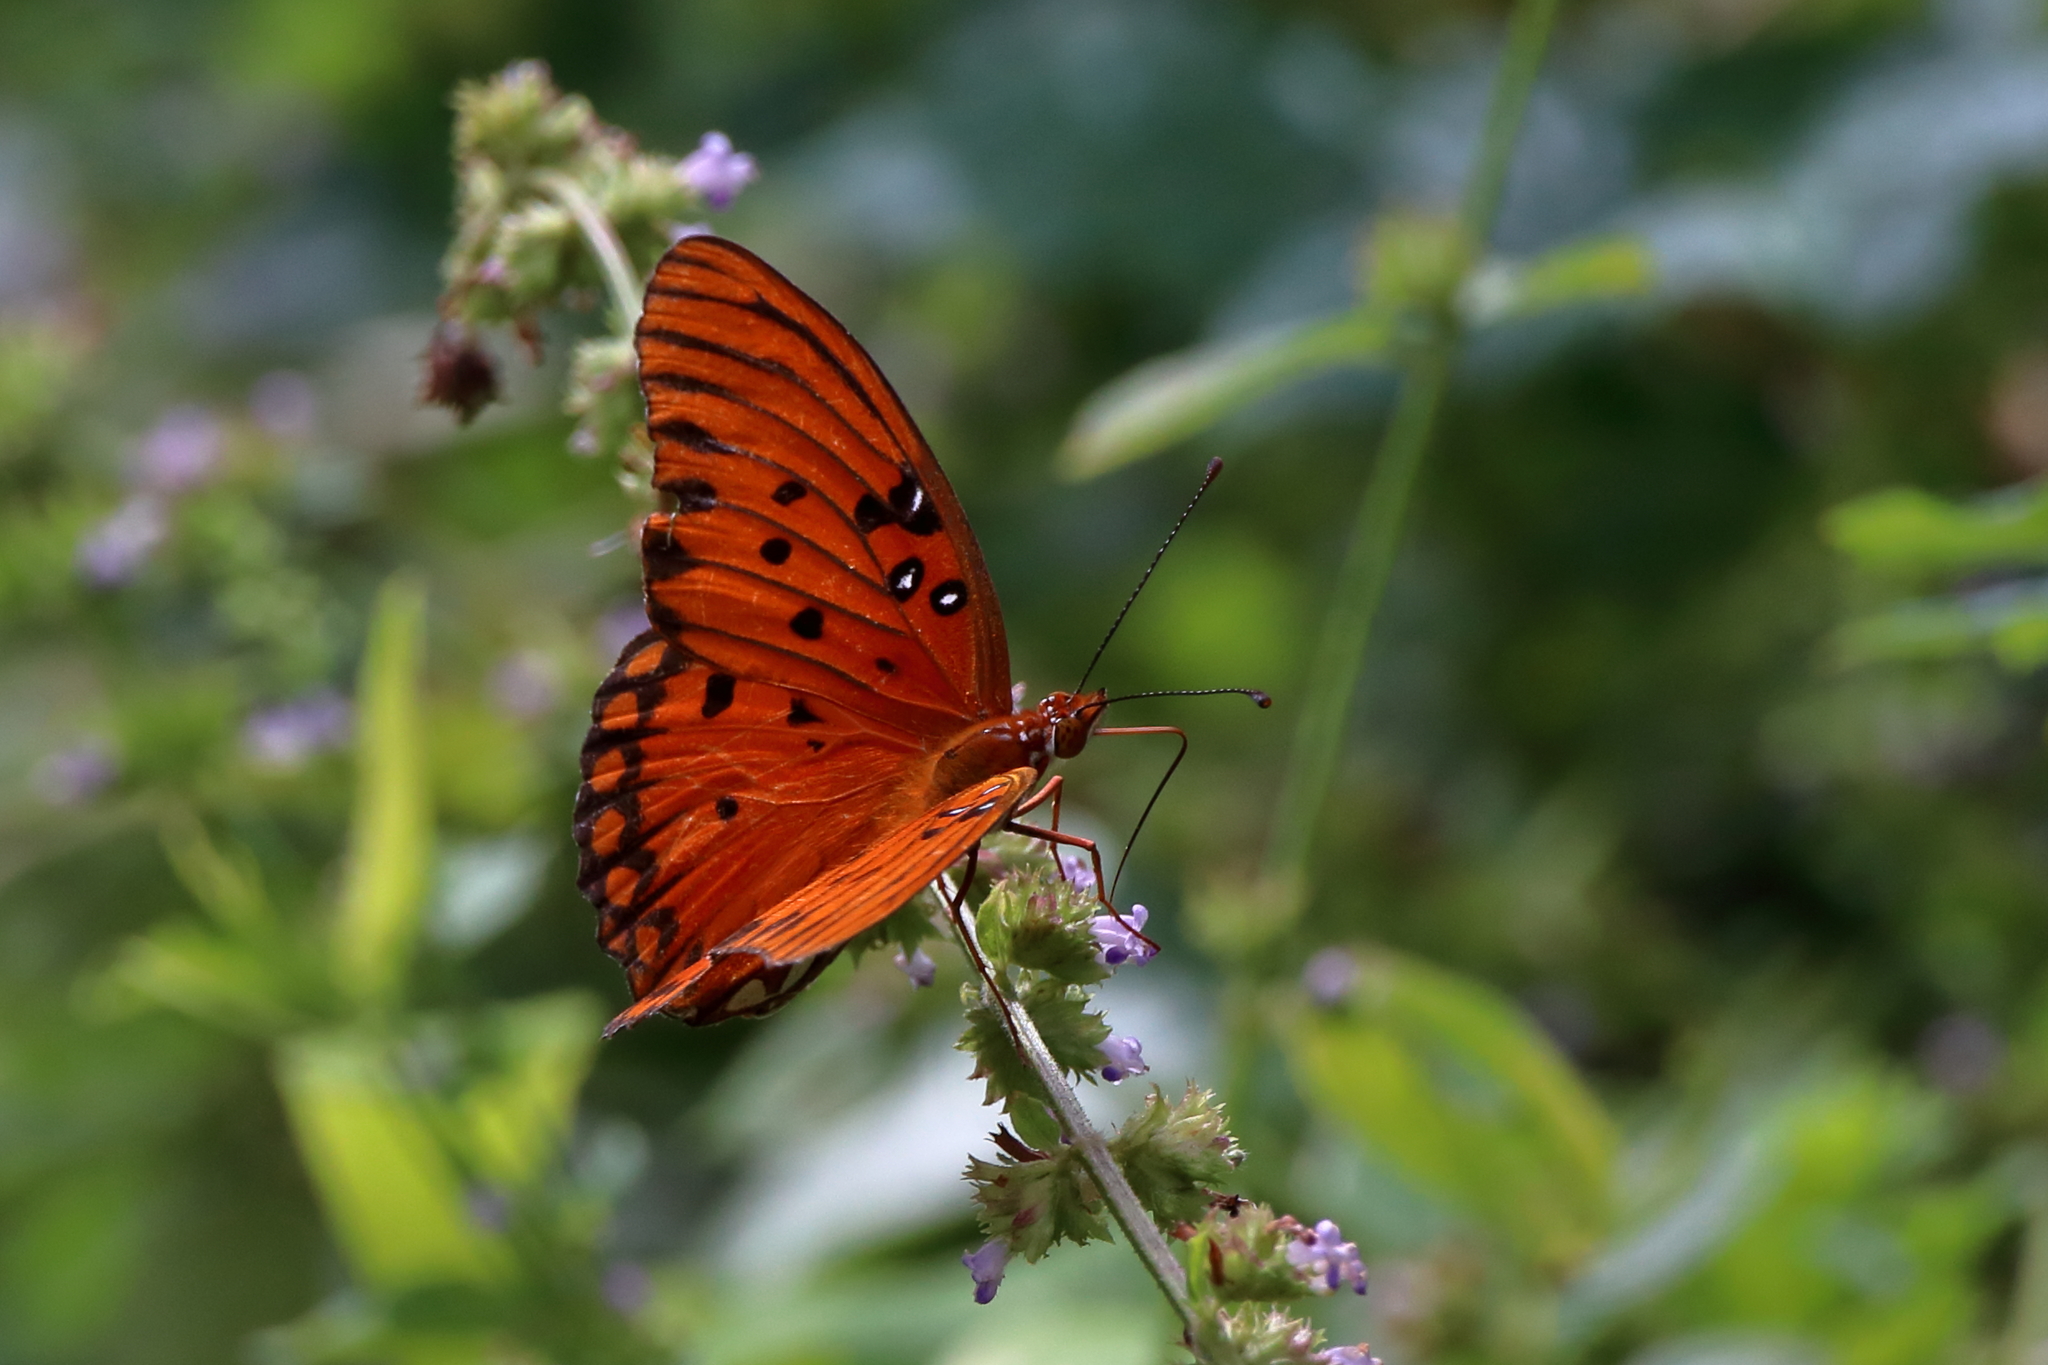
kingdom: Animalia
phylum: Arthropoda
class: Insecta
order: Lepidoptera
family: Nymphalidae
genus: Dione
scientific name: Dione vanillae
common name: Gulf fritillary
